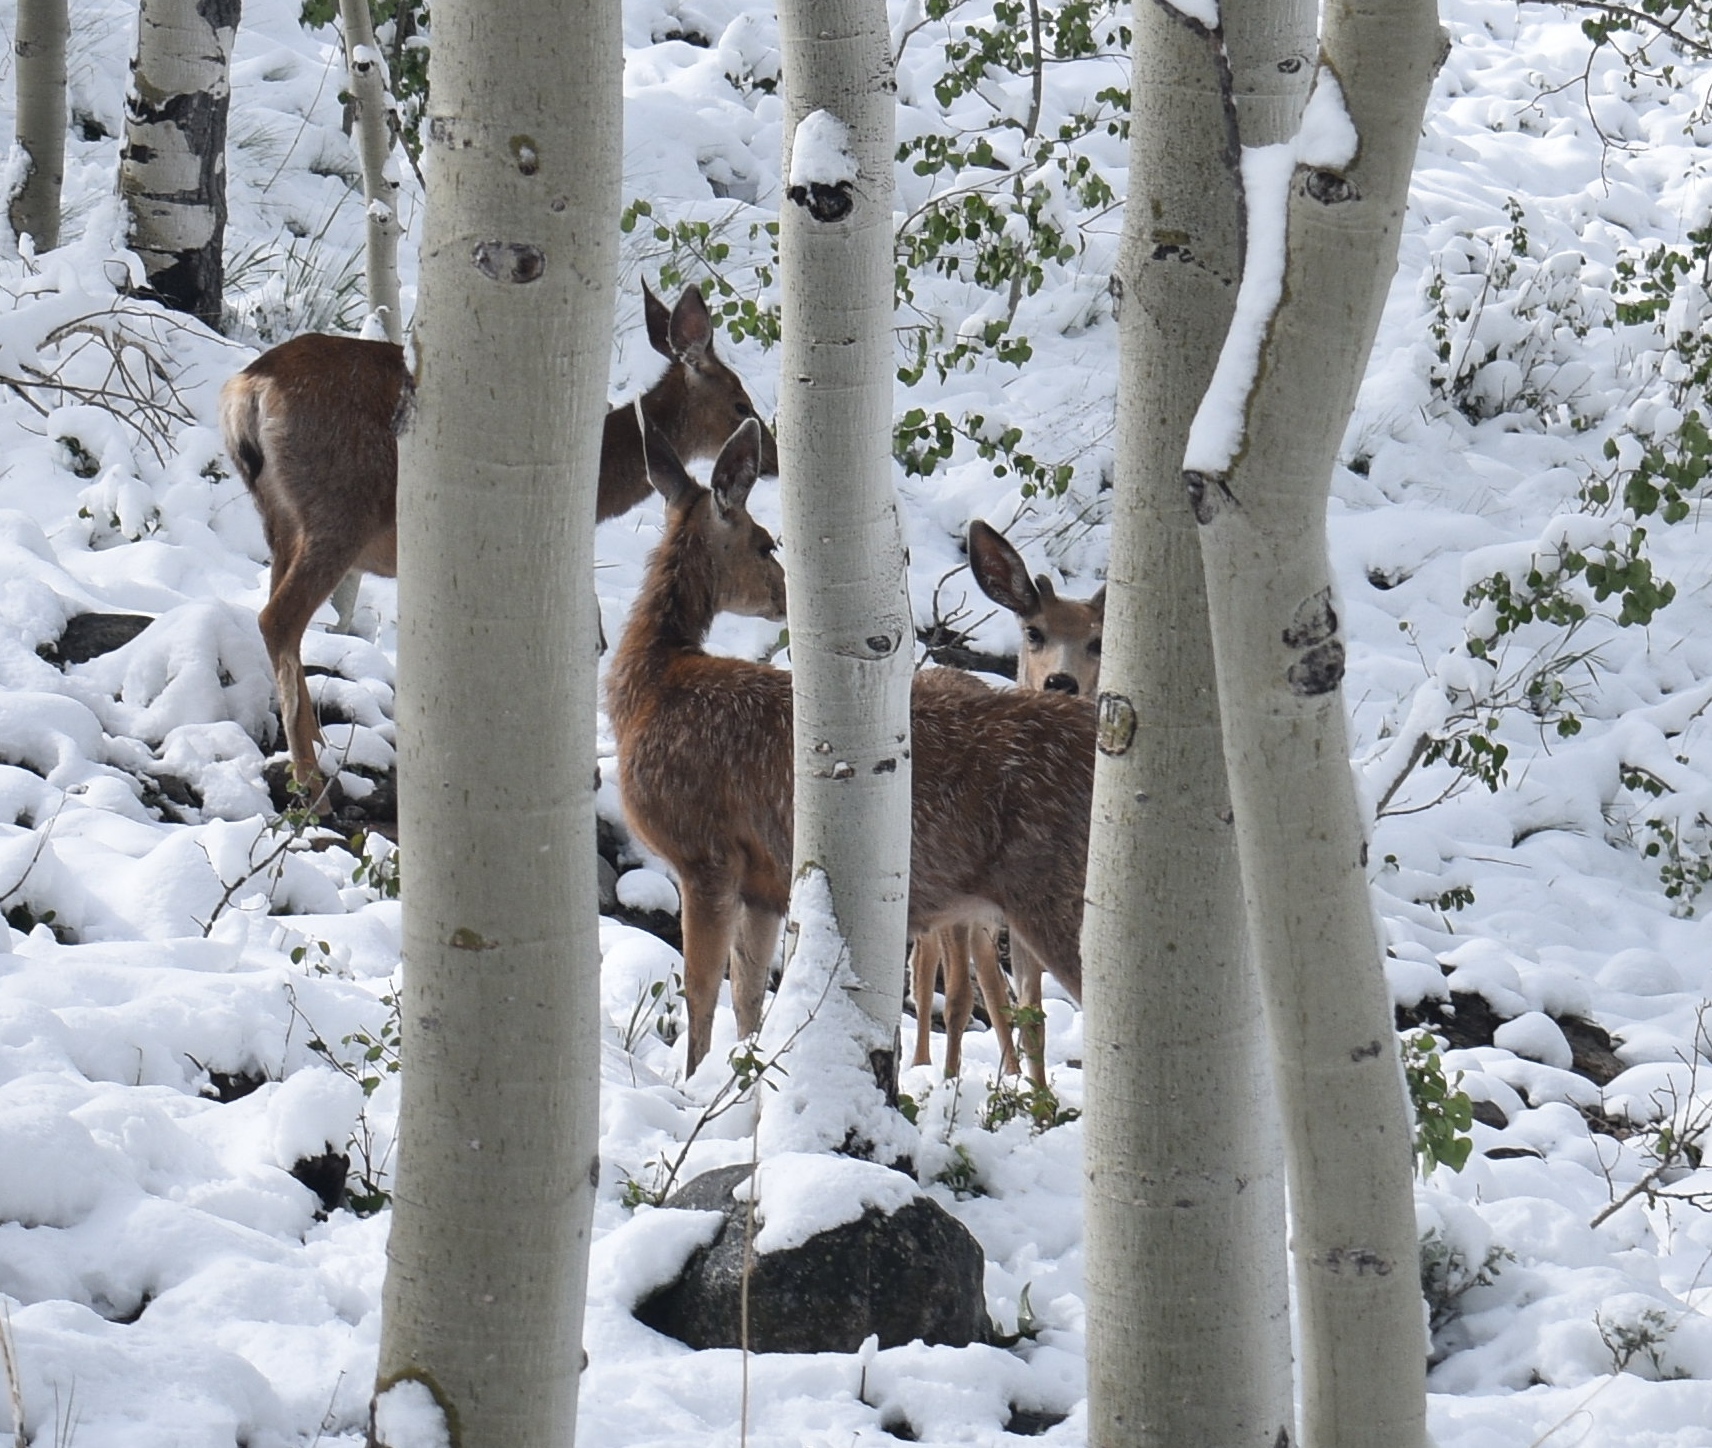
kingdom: Animalia
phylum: Chordata
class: Mammalia
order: Artiodactyla
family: Cervidae
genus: Odocoileus
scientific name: Odocoileus hemionus
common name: Mule deer
